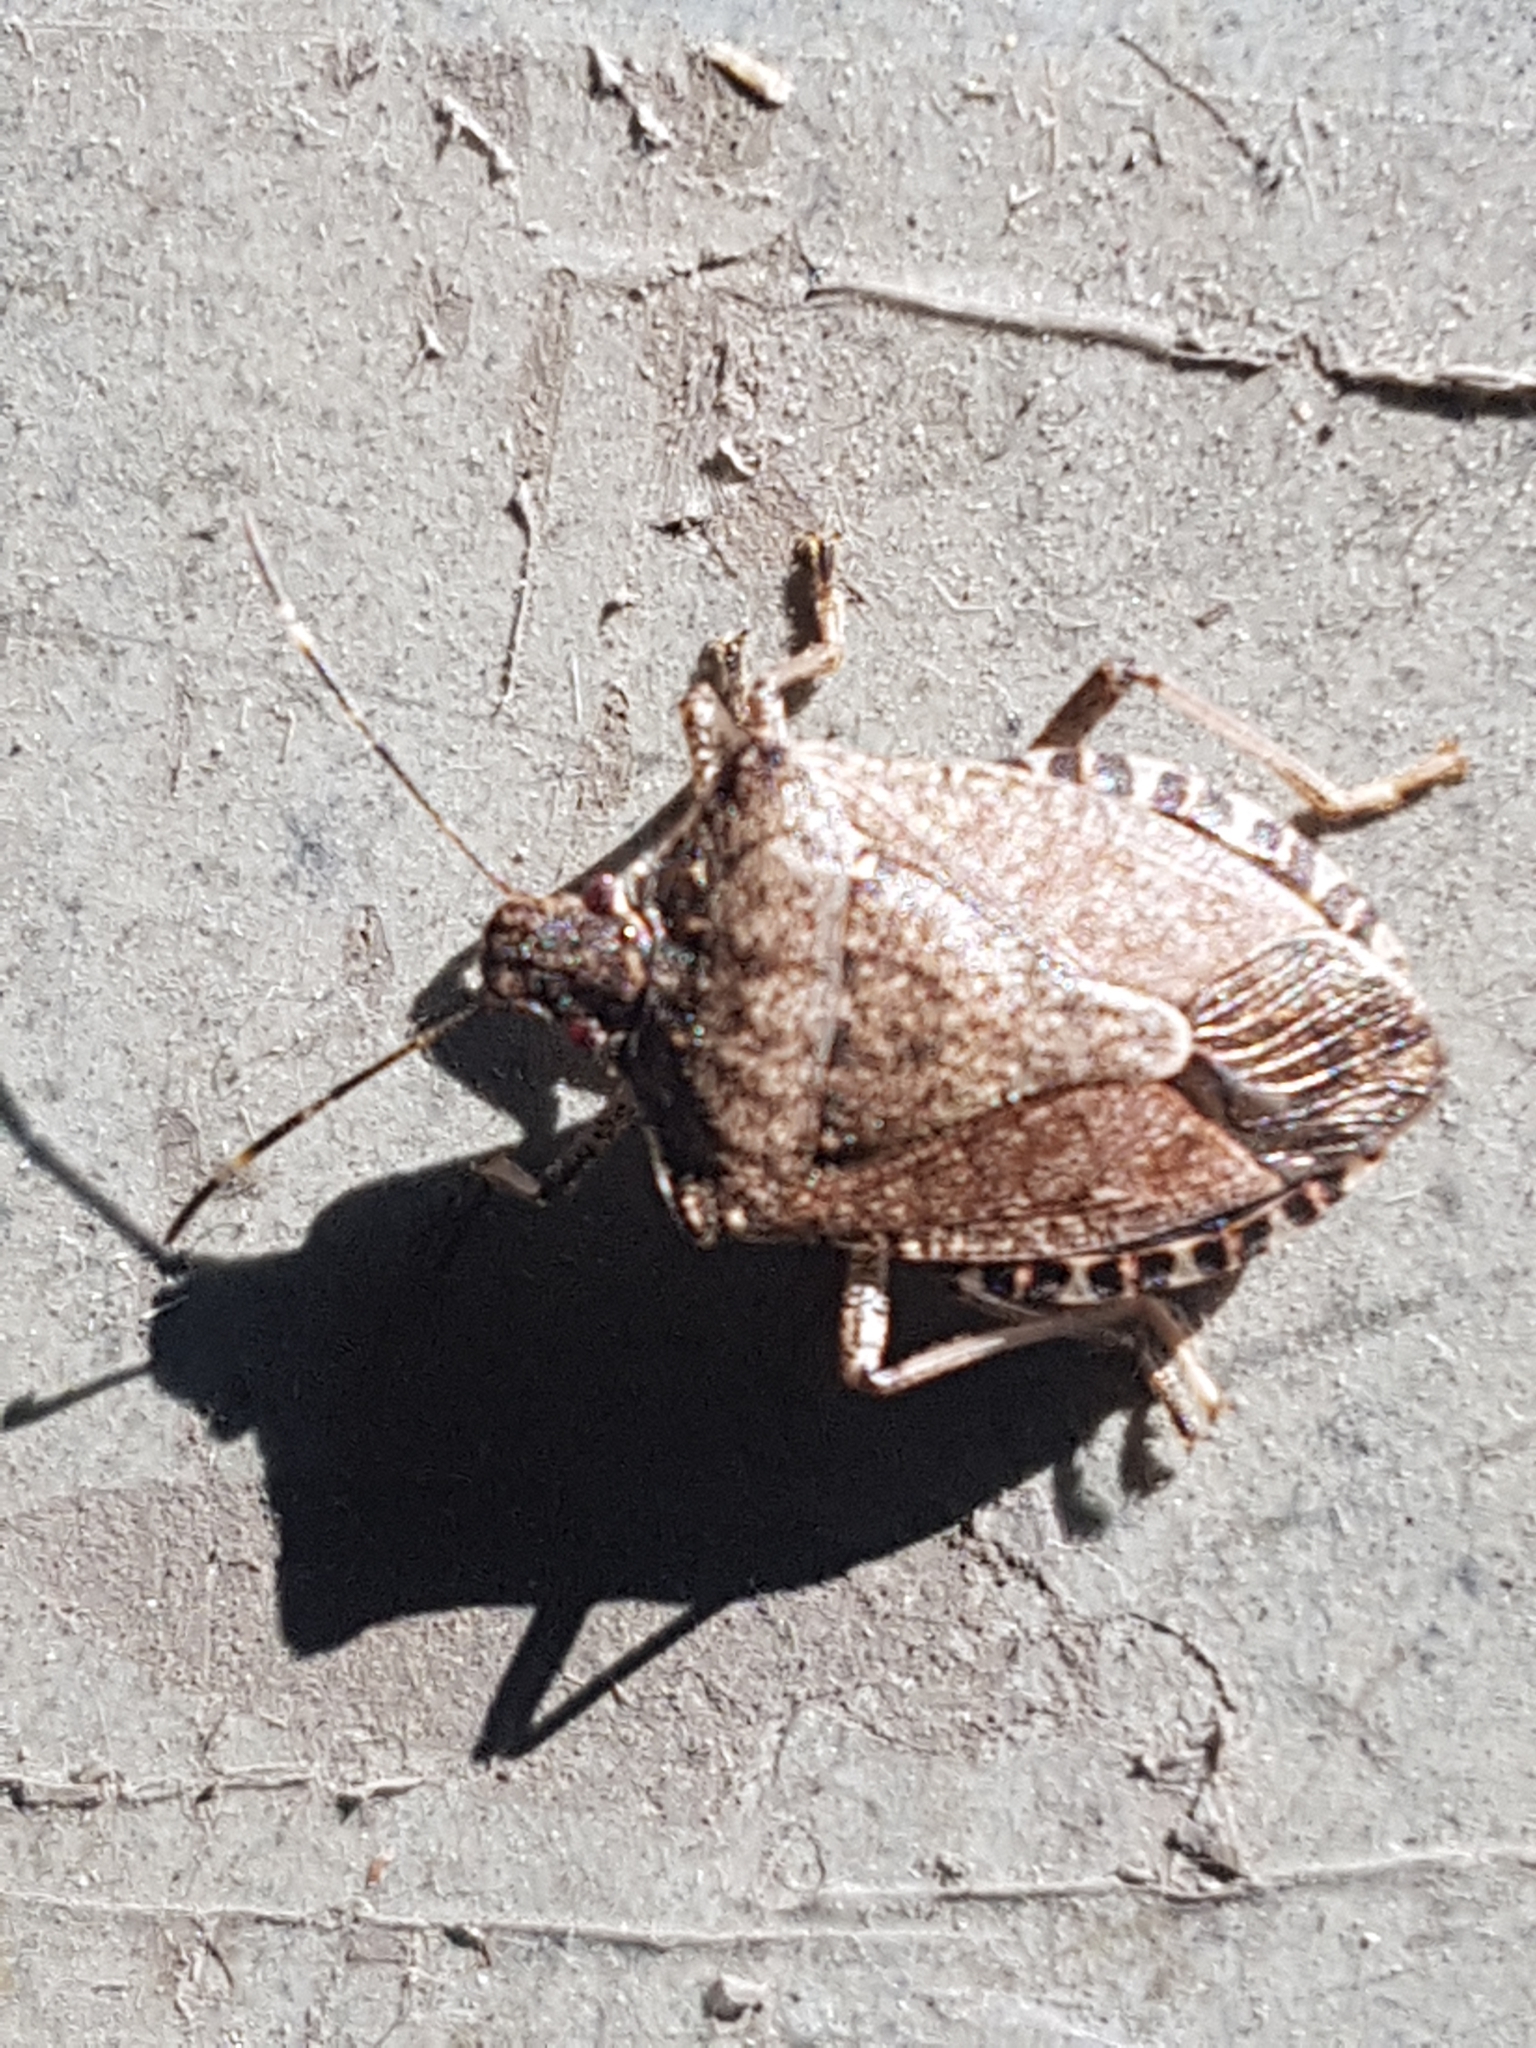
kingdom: Animalia
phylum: Arthropoda
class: Insecta
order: Hemiptera
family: Pentatomidae
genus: Halyomorpha
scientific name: Halyomorpha halys
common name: Brown marmorated stink bug
